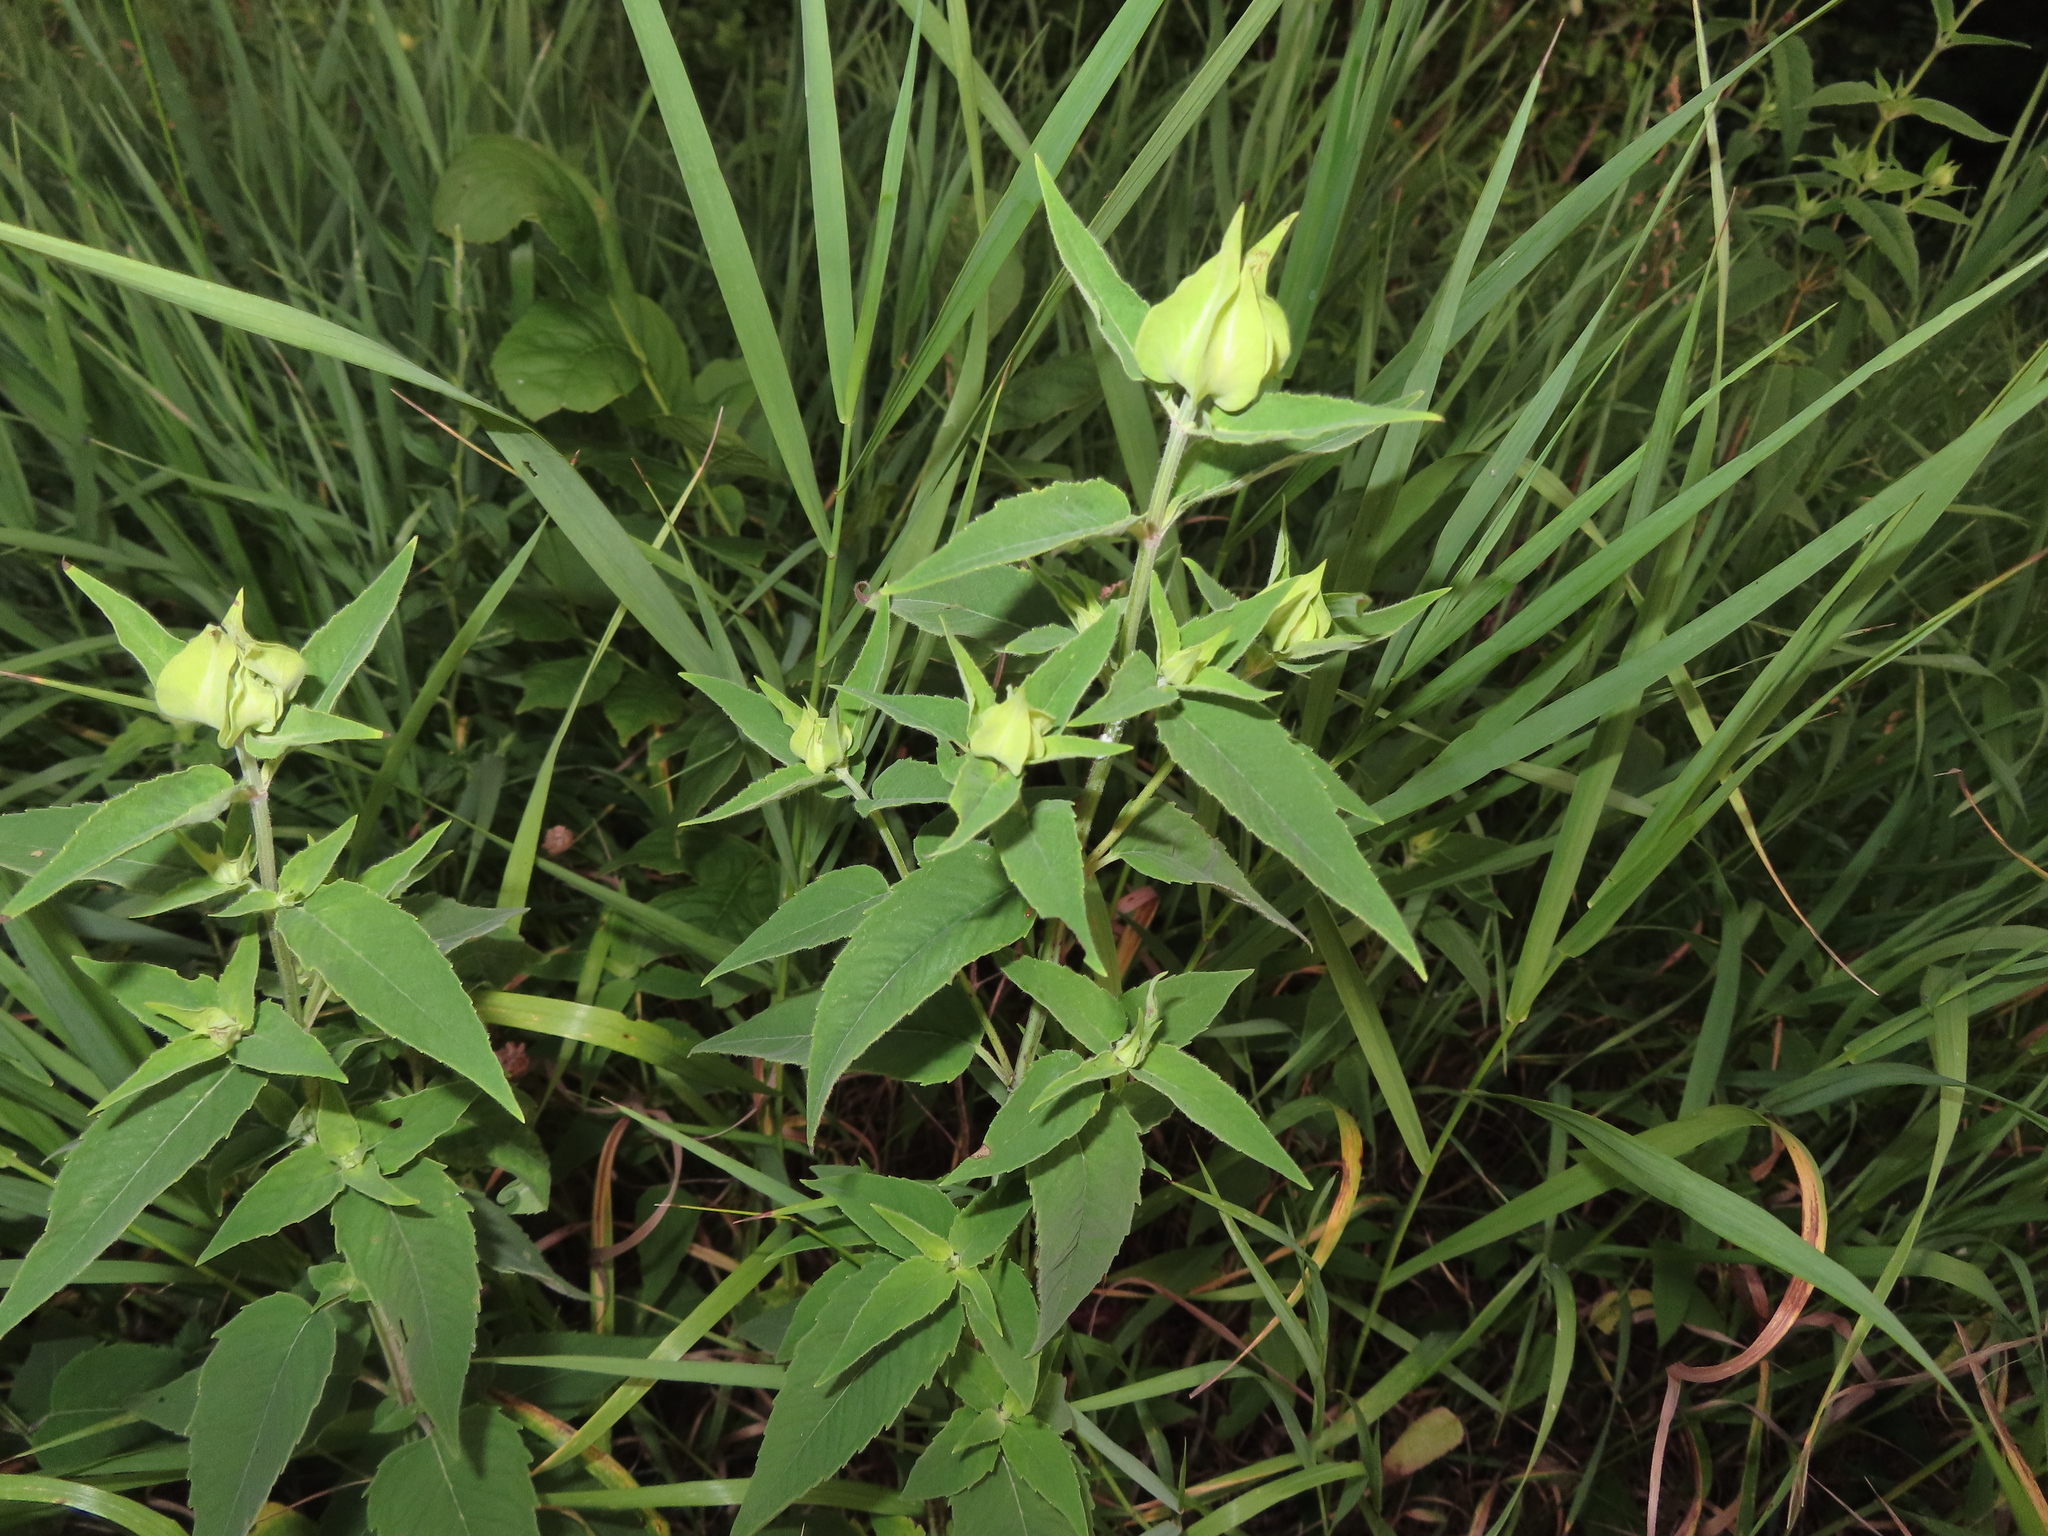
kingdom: Plantae
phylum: Tracheophyta
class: Magnoliopsida
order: Lamiales
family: Lamiaceae
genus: Monarda
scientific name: Monarda fistulosa
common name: Purple beebalm
